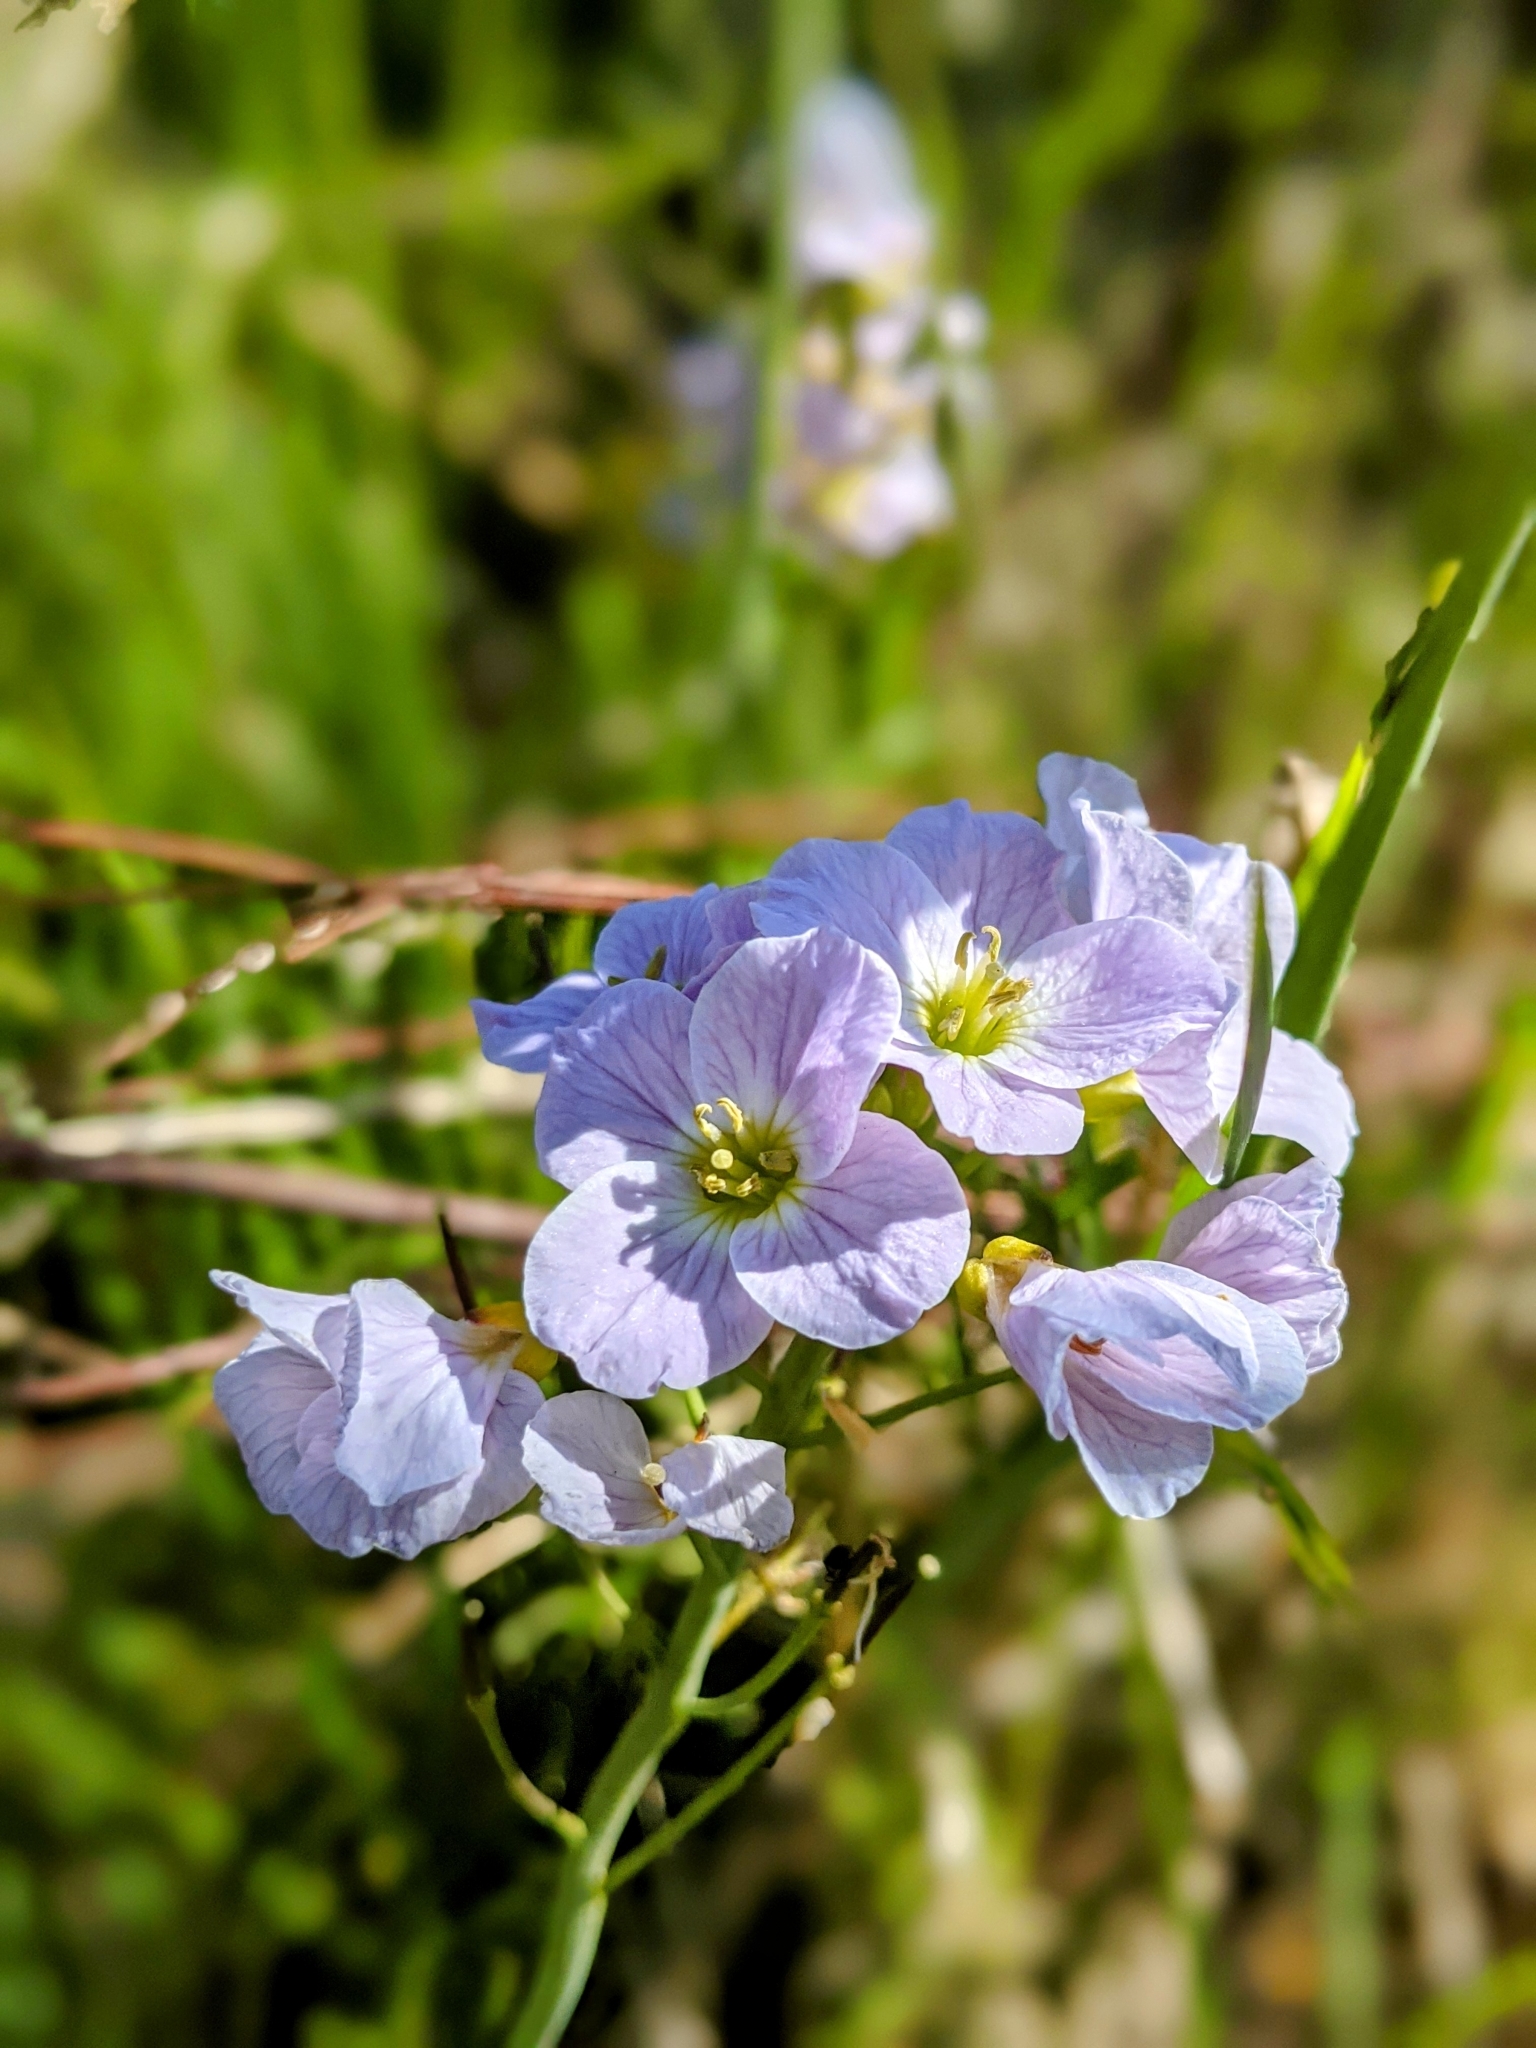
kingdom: Plantae
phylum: Tracheophyta
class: Magnoliopsida
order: Brassicales
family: Brassicaceae
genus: Cardamine
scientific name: Cardamine pratensis
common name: Cuckoo flower
